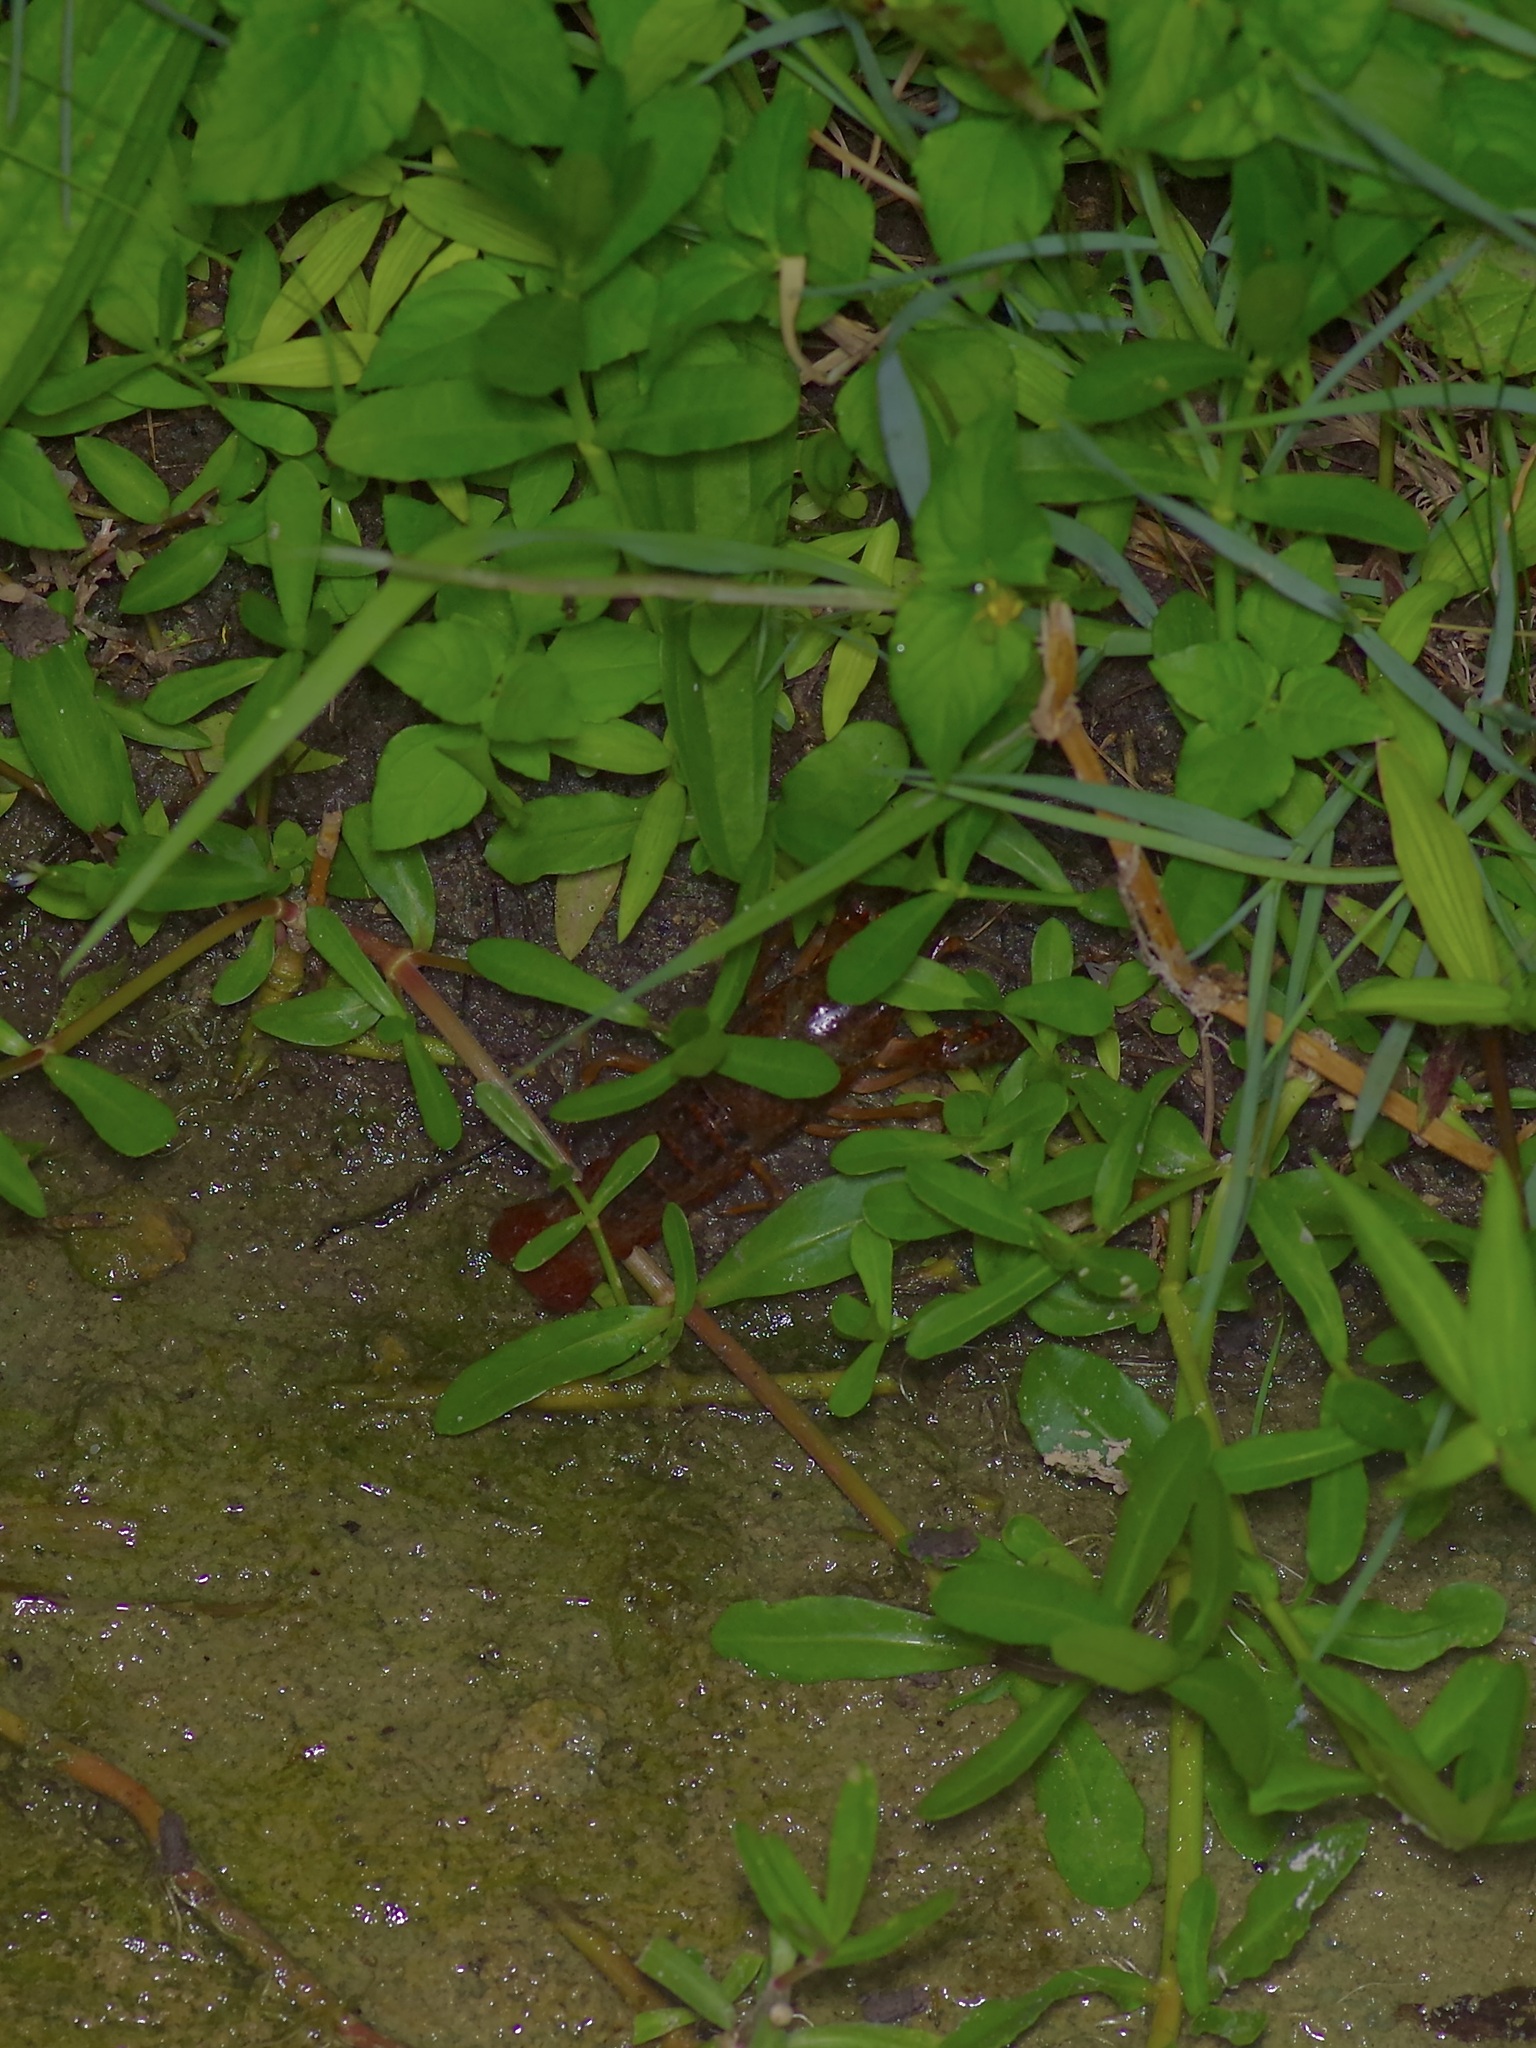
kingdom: Animalia
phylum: Arthropoda
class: Malacostraca
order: Decapoda
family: Cambaridae
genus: Procambarus
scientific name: Procambarus clarkii
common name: Red swamp crayfish
